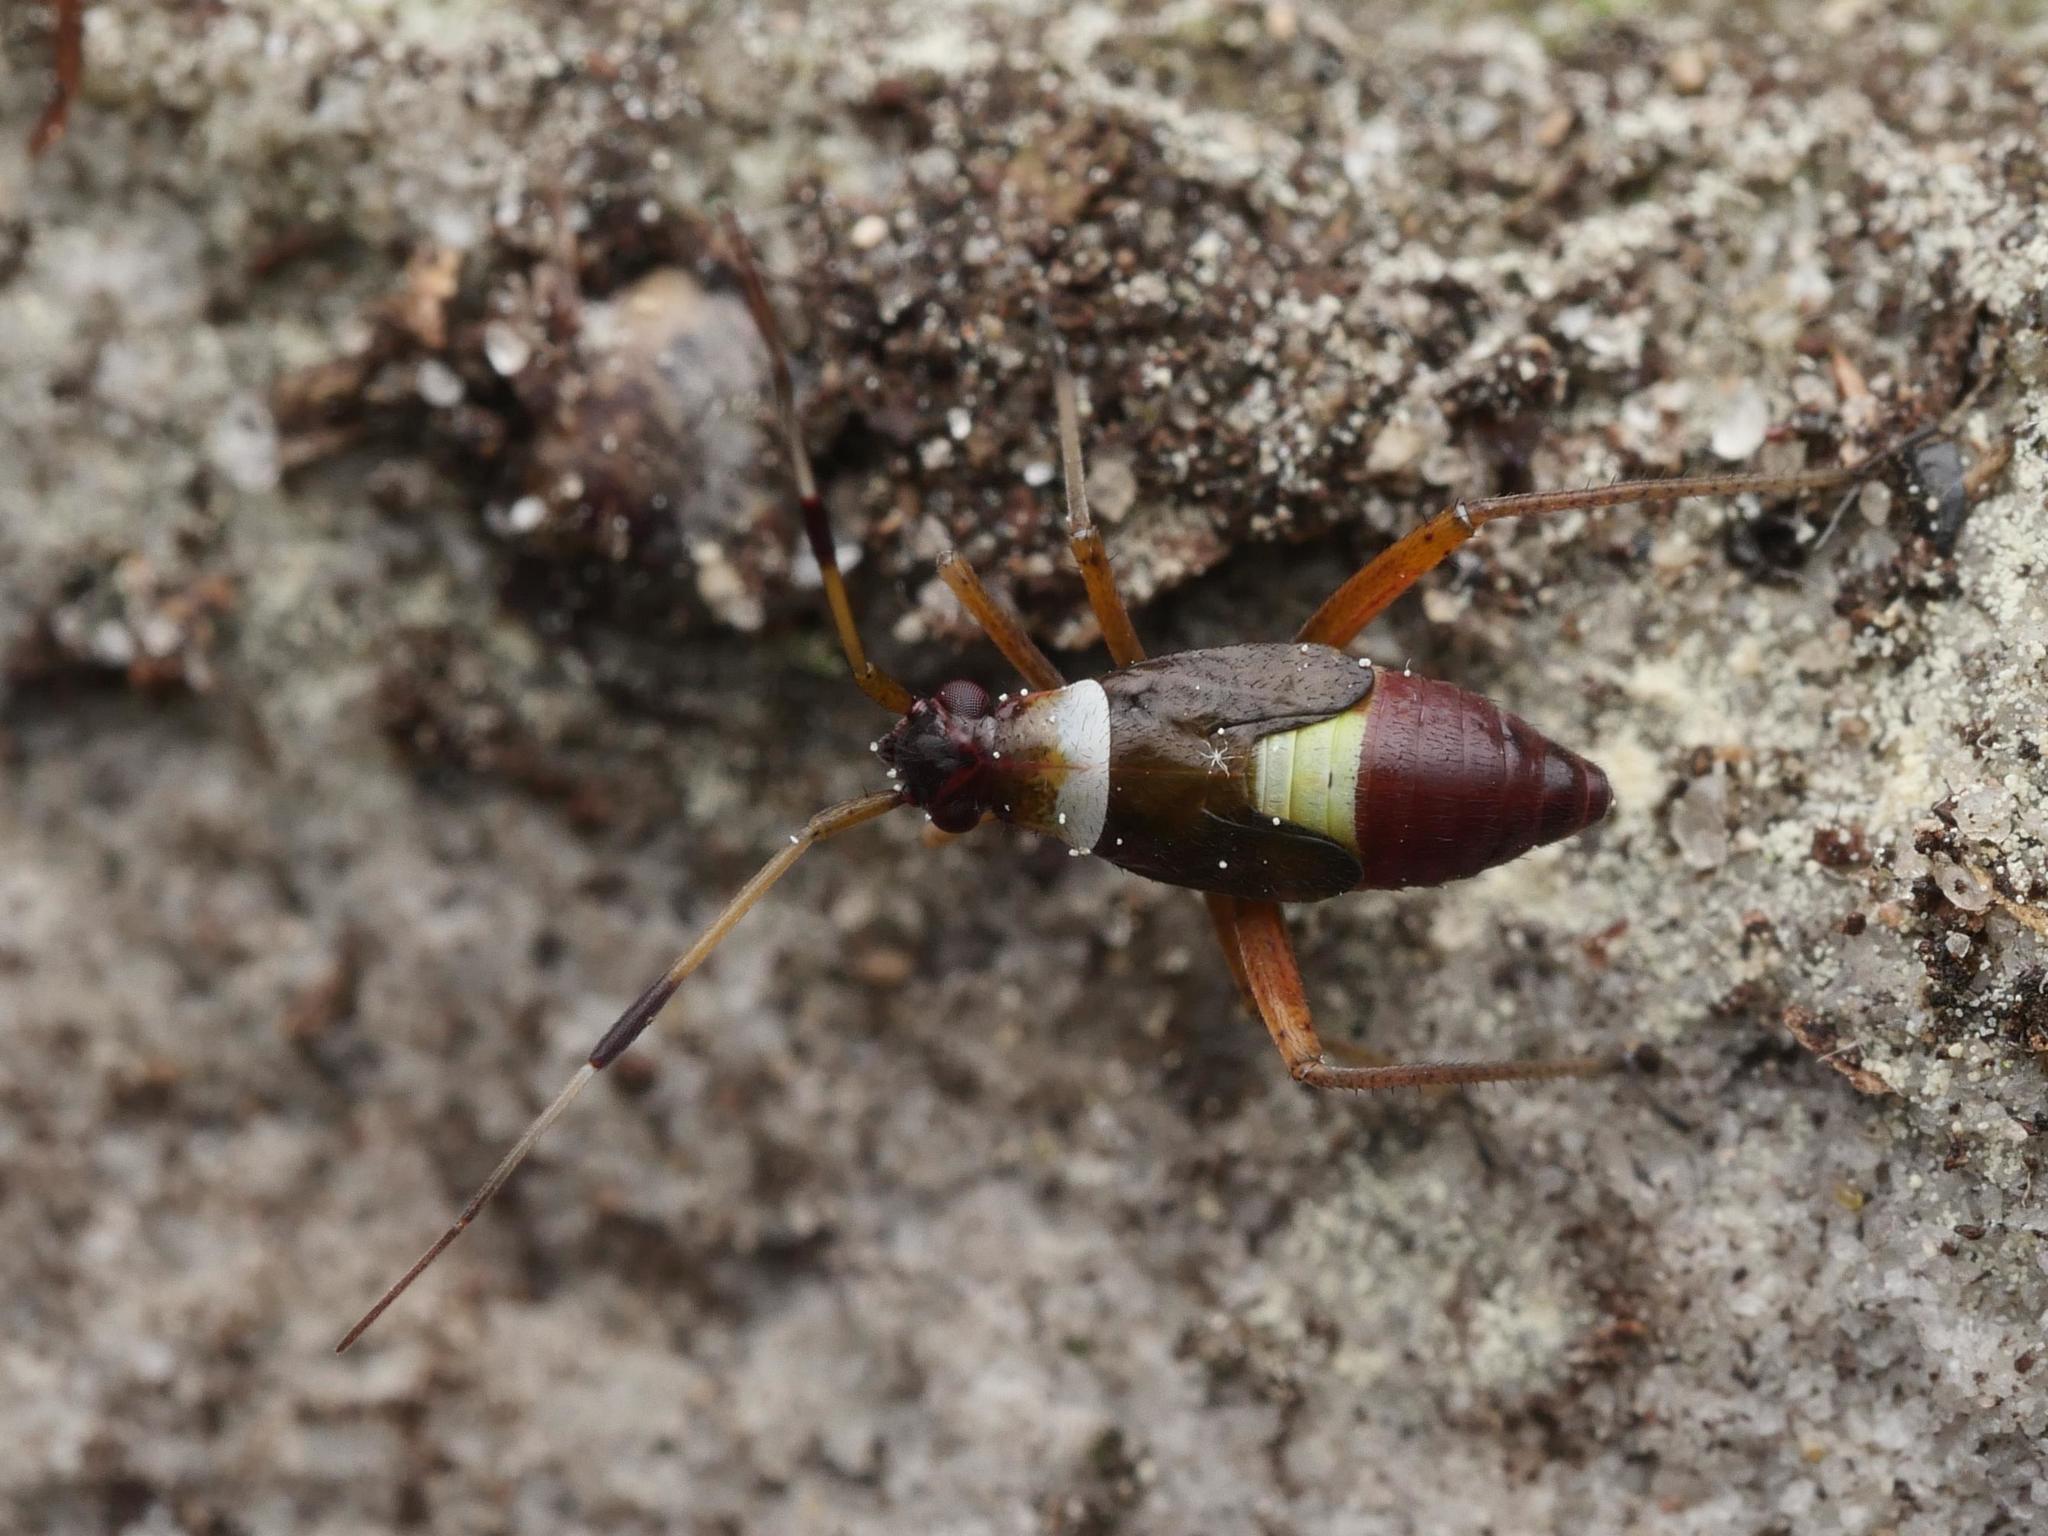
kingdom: Animalia
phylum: Arthropoda
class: Insecta
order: Hemiptera
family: Miridae
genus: Closterotomus
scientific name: Closterotomus biclavatus
